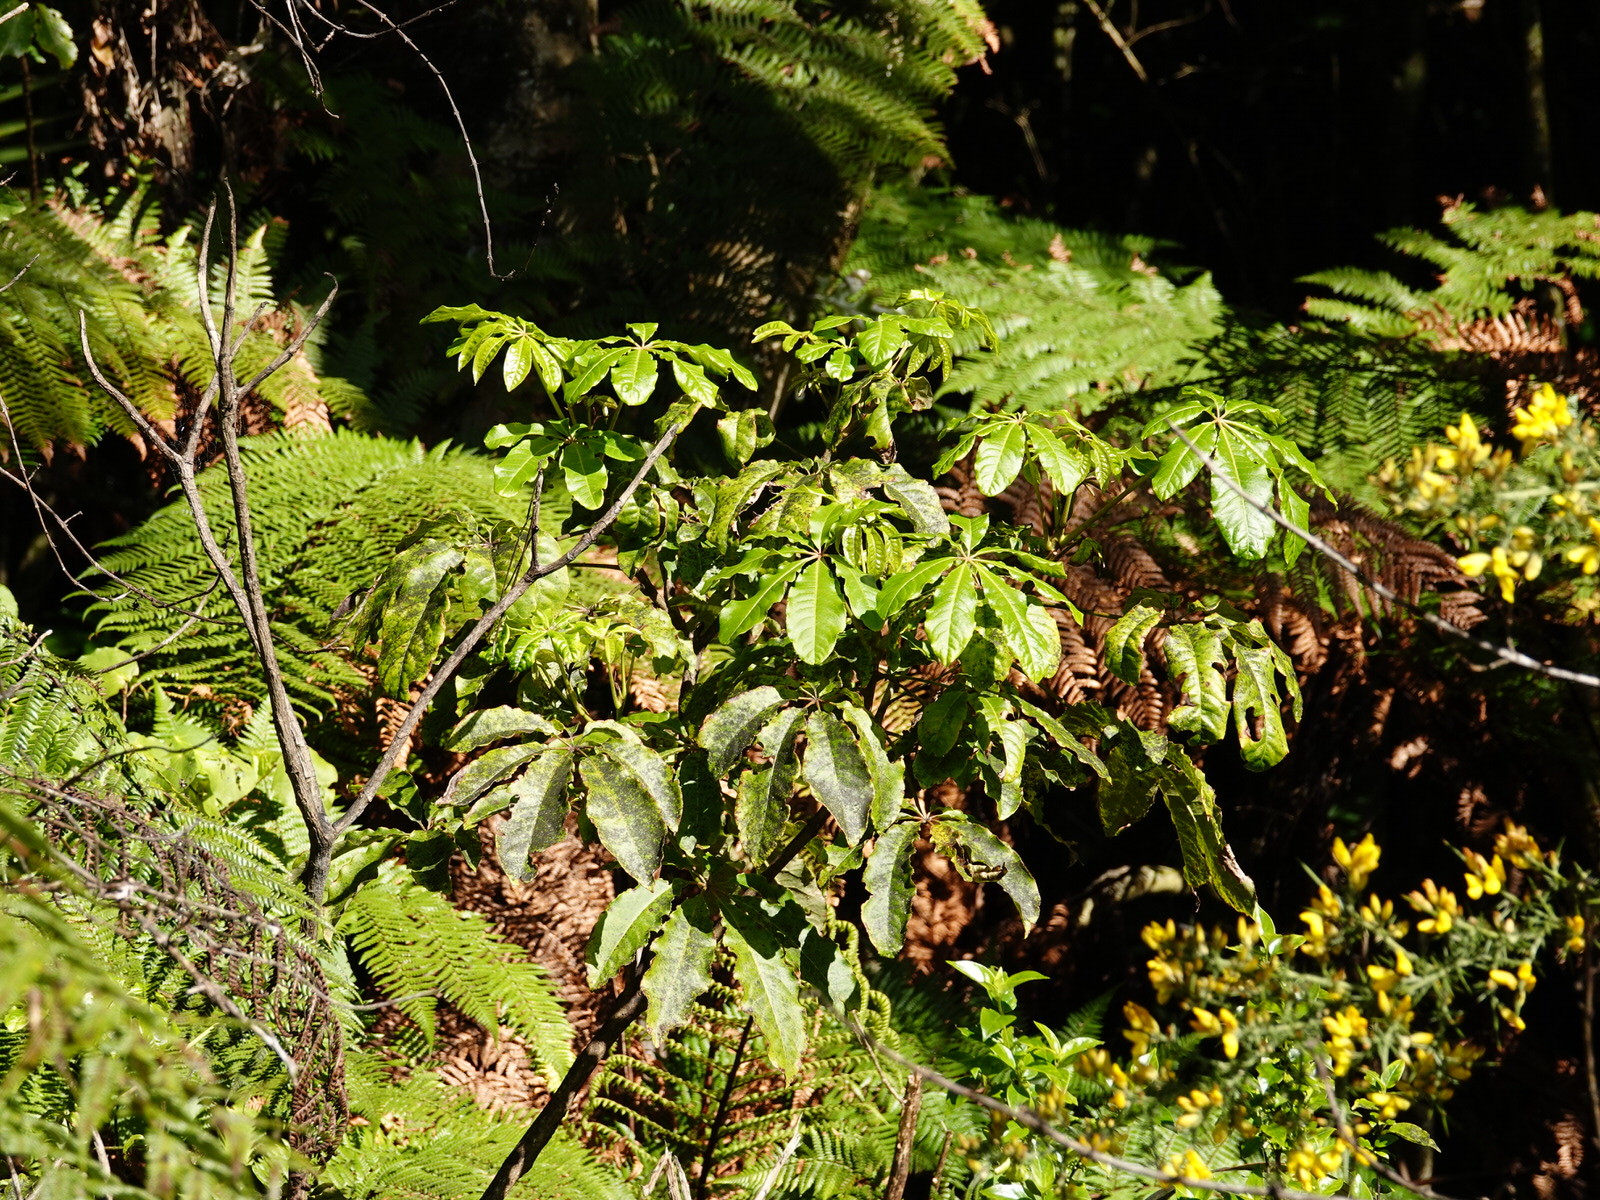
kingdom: Plantae
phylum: Tracheophyta
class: Magnoliopsida
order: Apiales
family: Araliaceae
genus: Schefflera
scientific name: Schefflera digitata
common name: Pate
